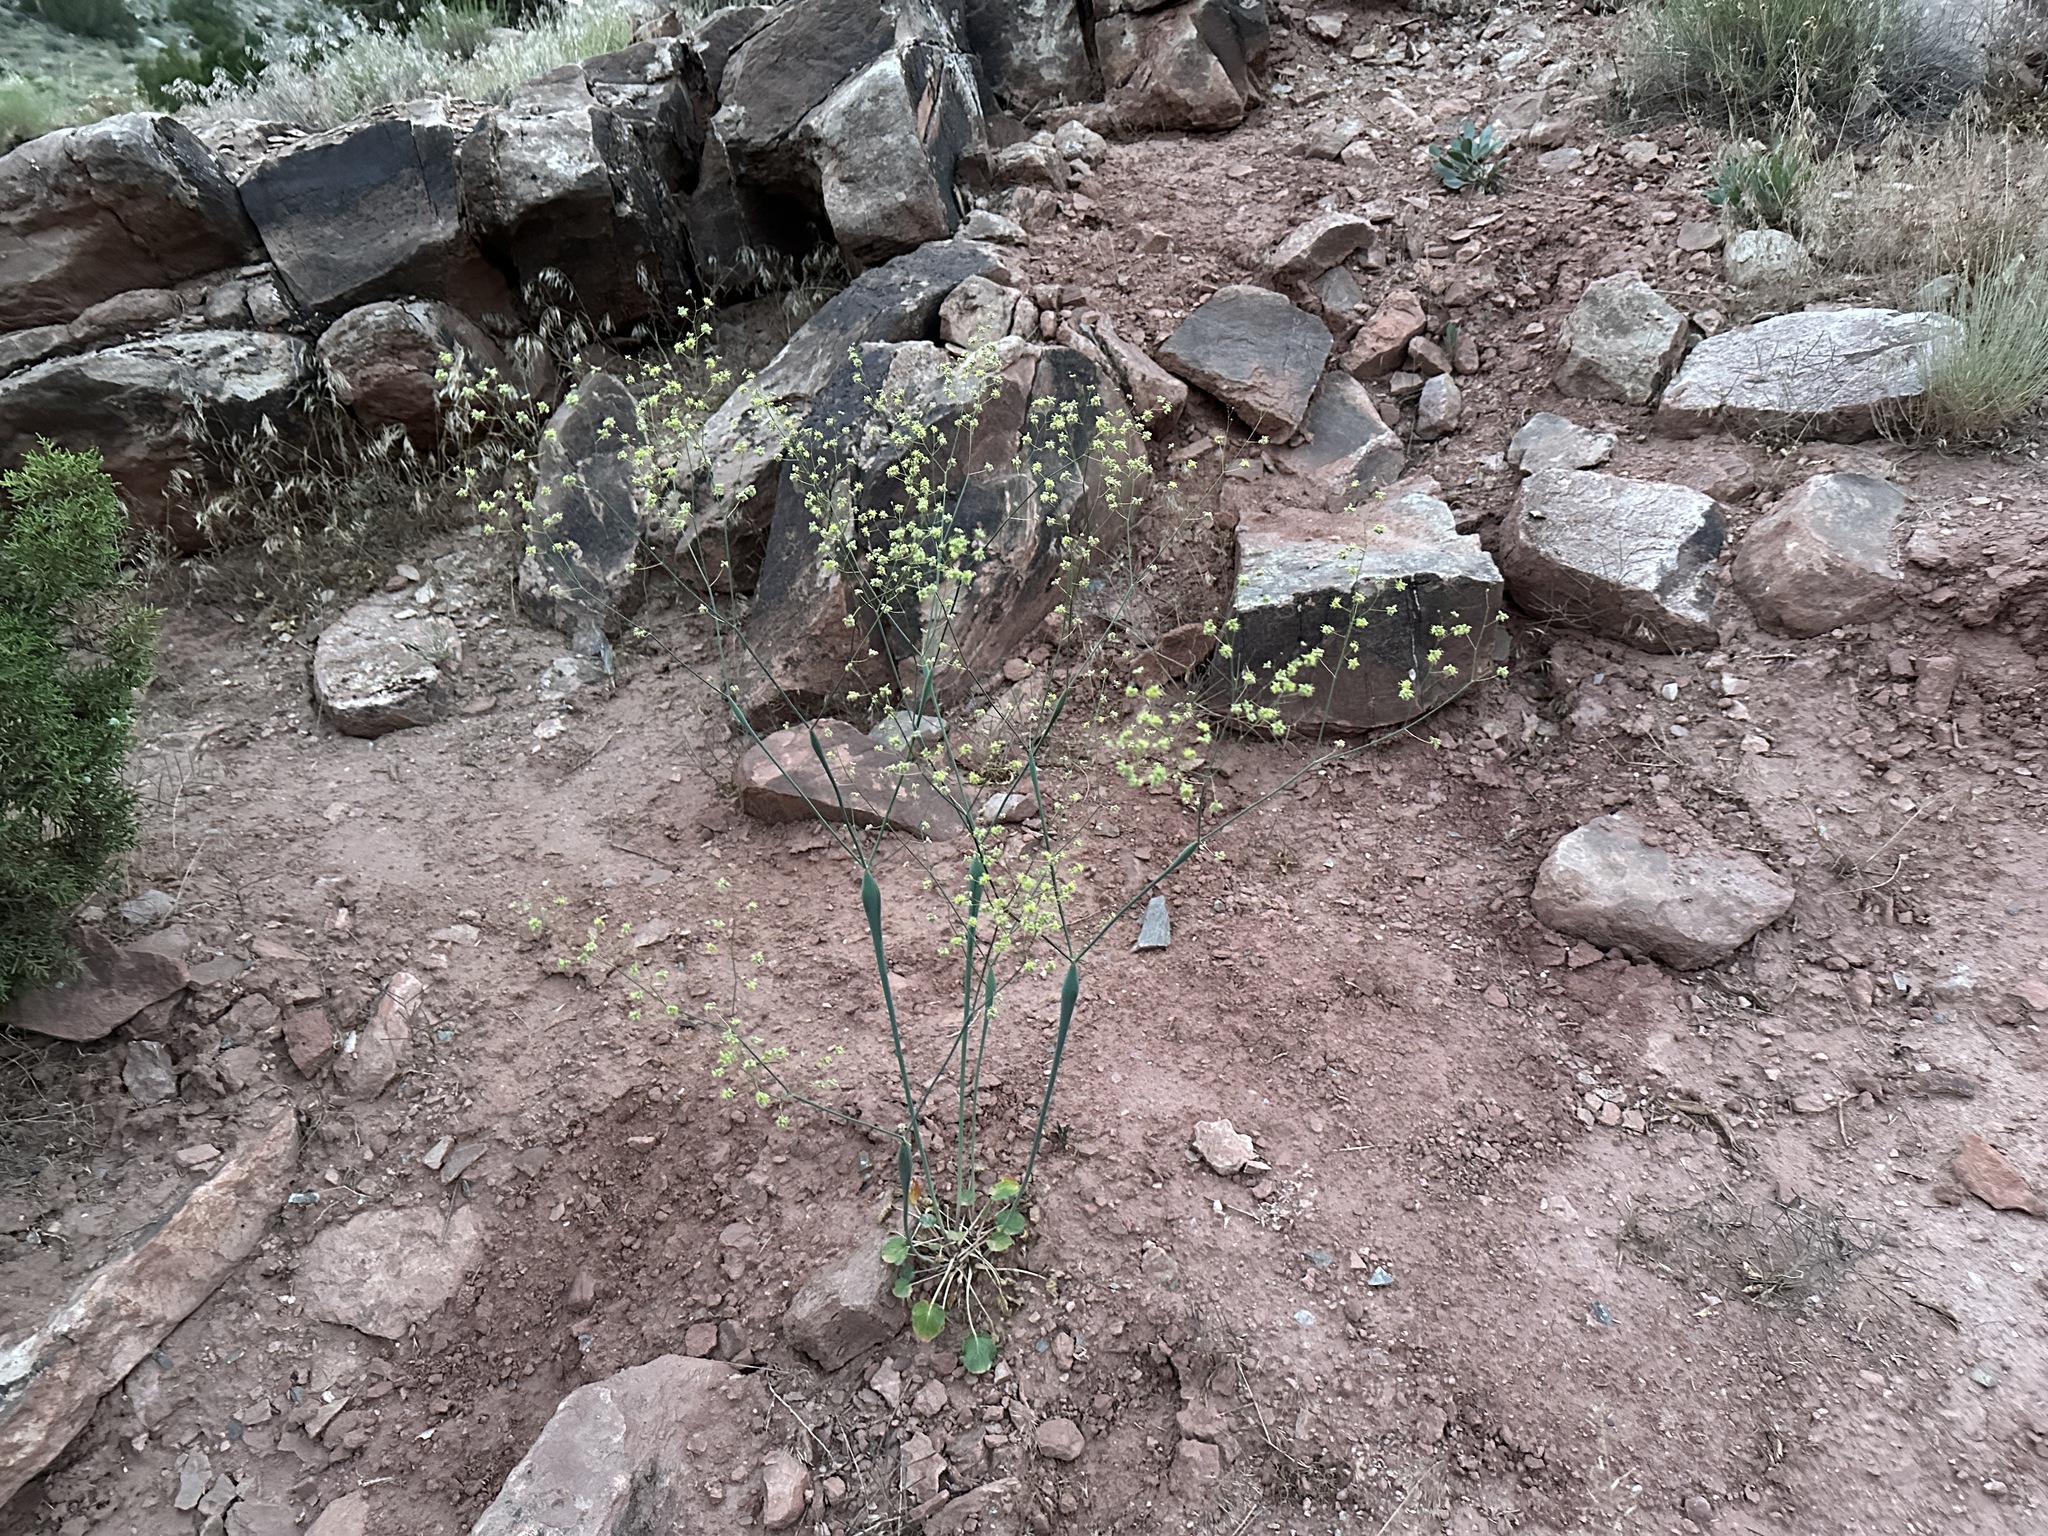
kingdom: Plantae
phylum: Tracheophyta
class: Magnoliopsida
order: Caryophyllales
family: Polygonaceae
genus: Eriogonum
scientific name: Eriogonum inflatum
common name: Desert trumpet
